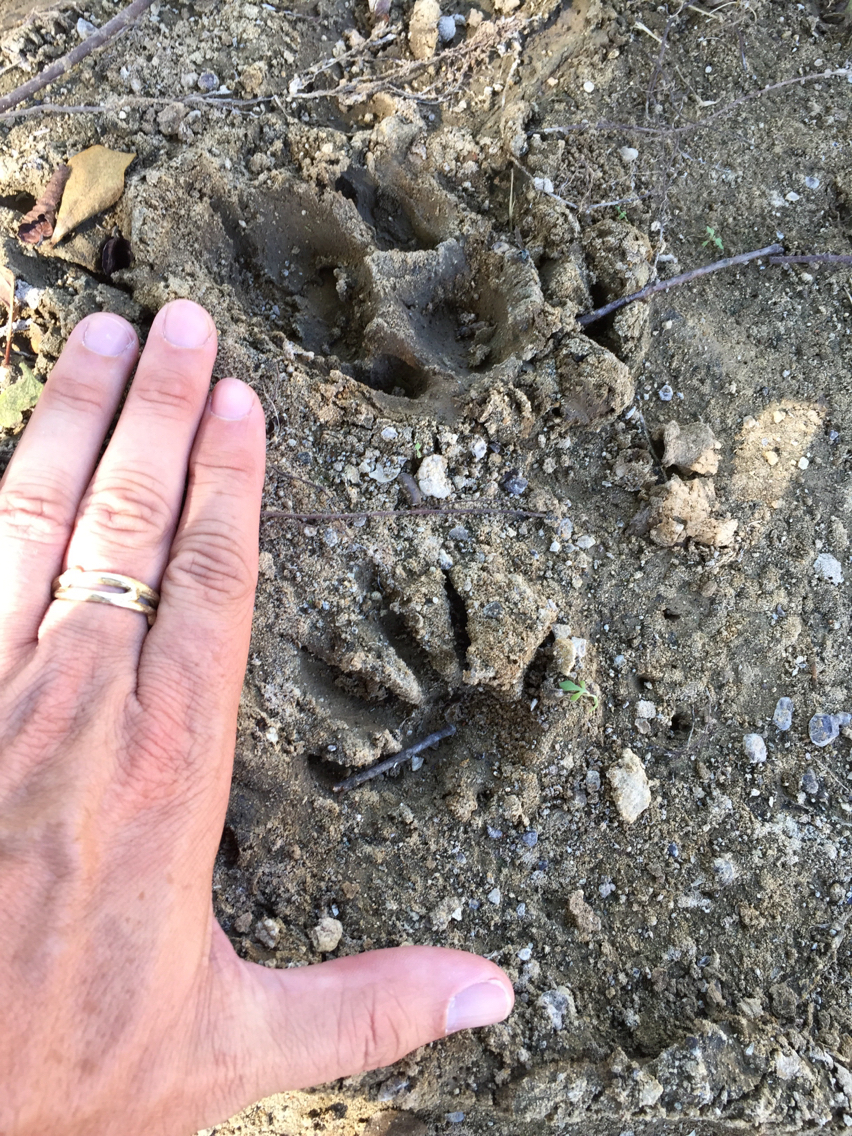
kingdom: Animalia
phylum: Chordata
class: Mammalia
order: Carnivora
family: Procyonidae
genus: Procyon
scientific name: Procyon lotor
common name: Raccoon
